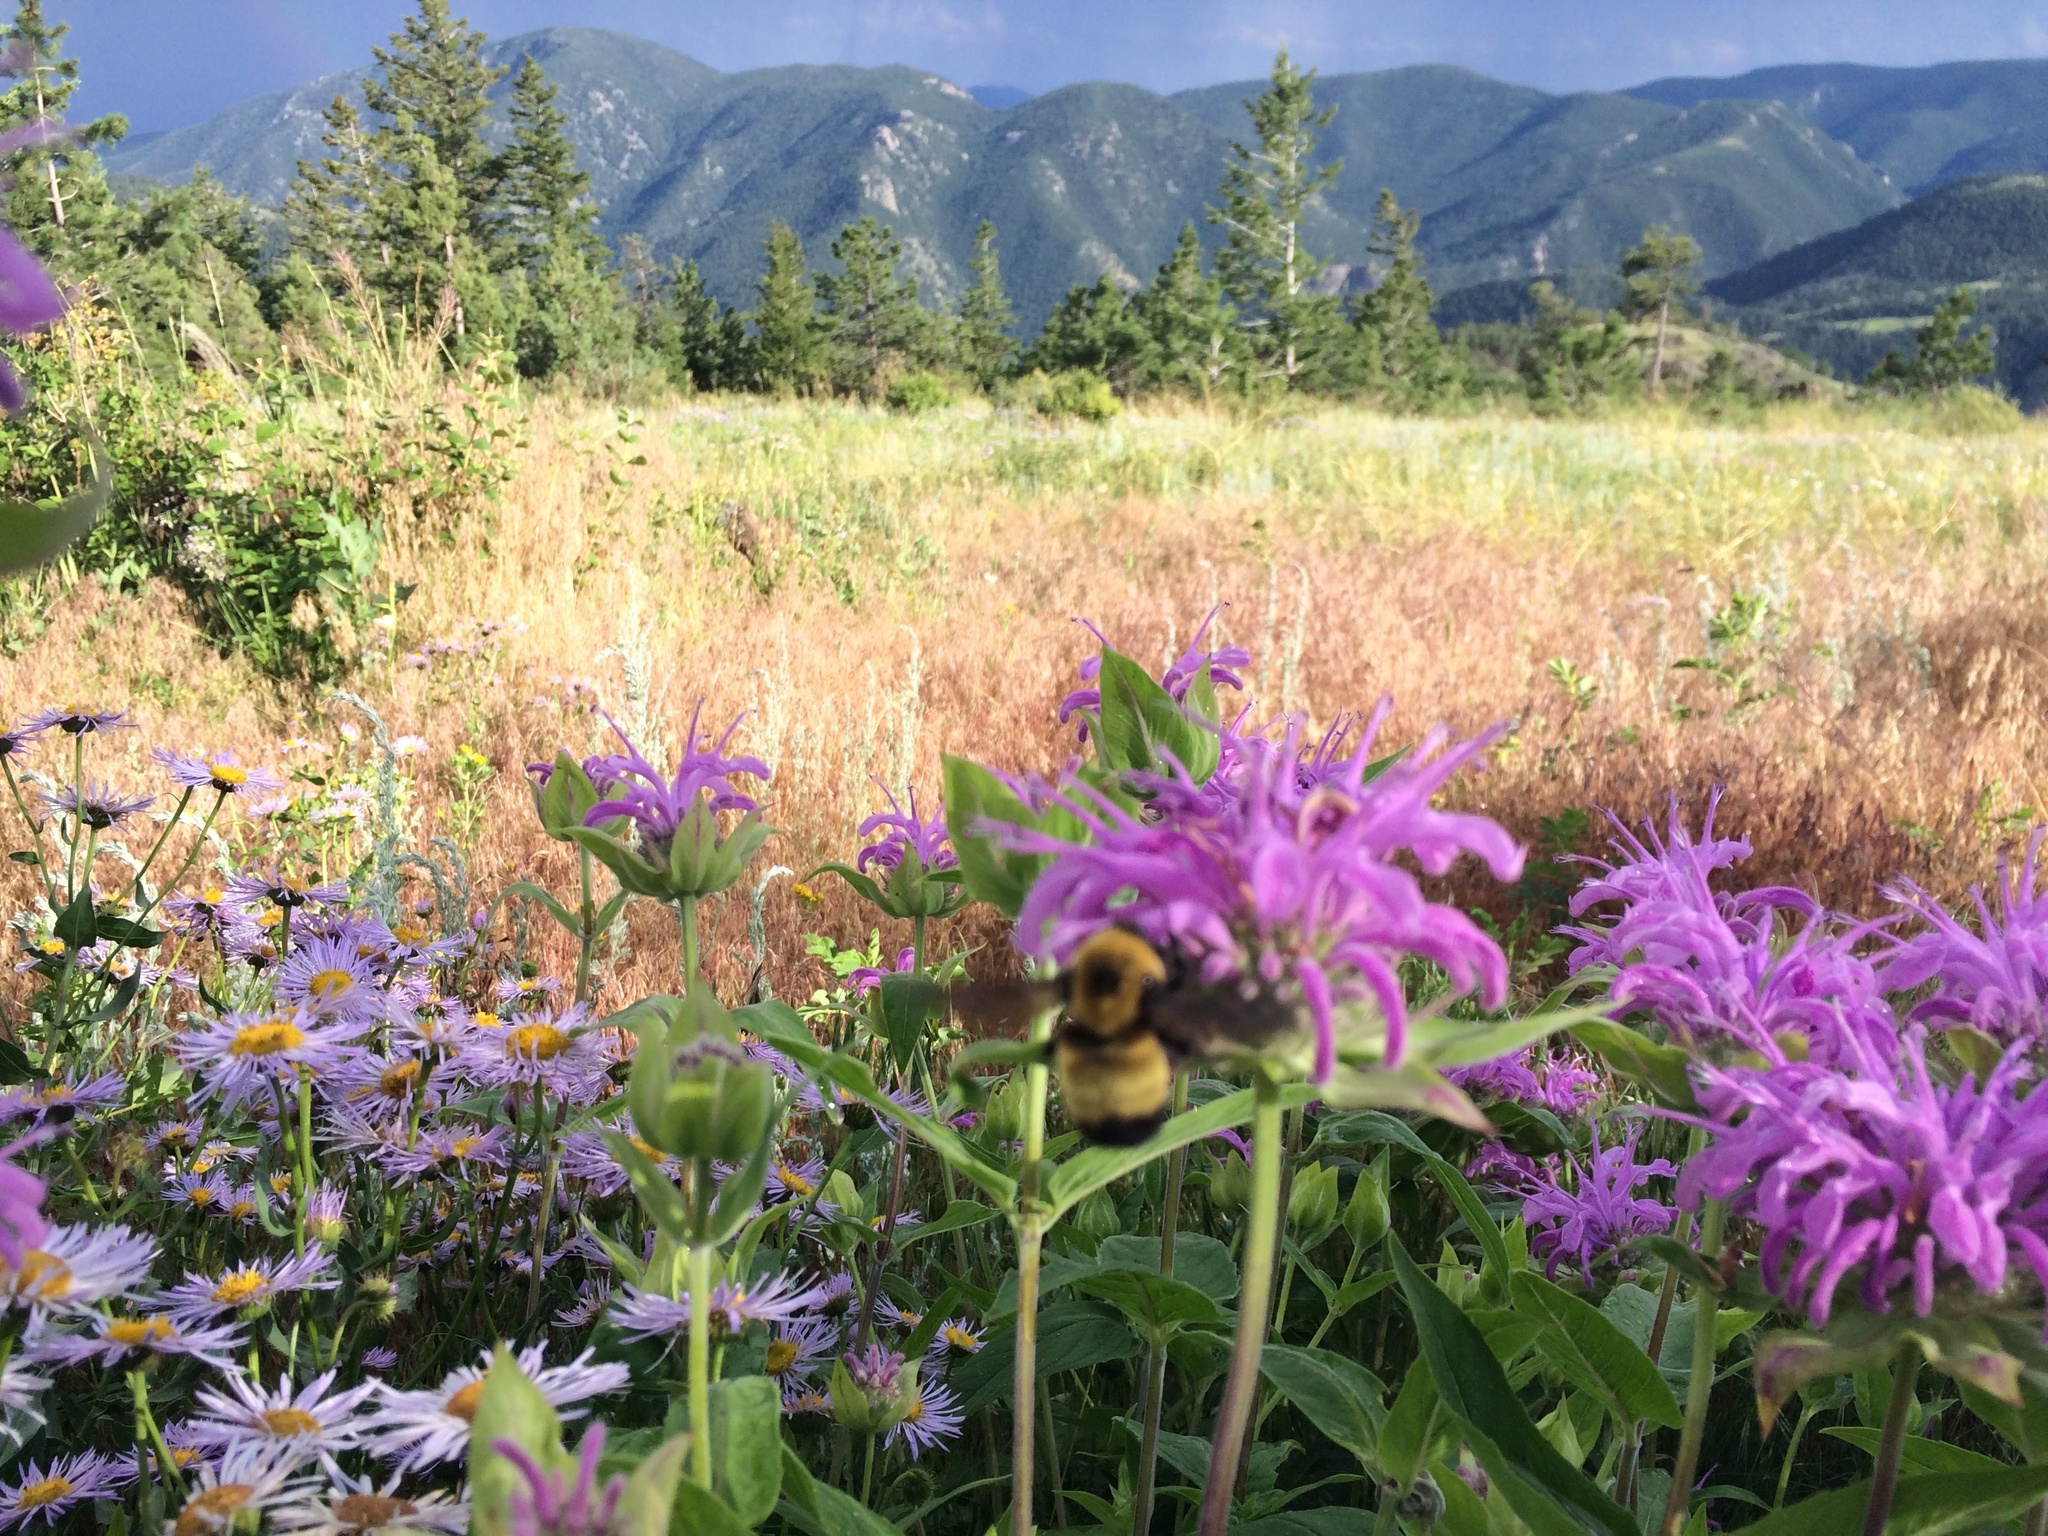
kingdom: Plantae
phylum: Tracheophyta
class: Magnoliopsida
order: Lamiales
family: Lamiaceae
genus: Monarda
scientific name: Monarda fistulosa
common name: Purple beebalm
